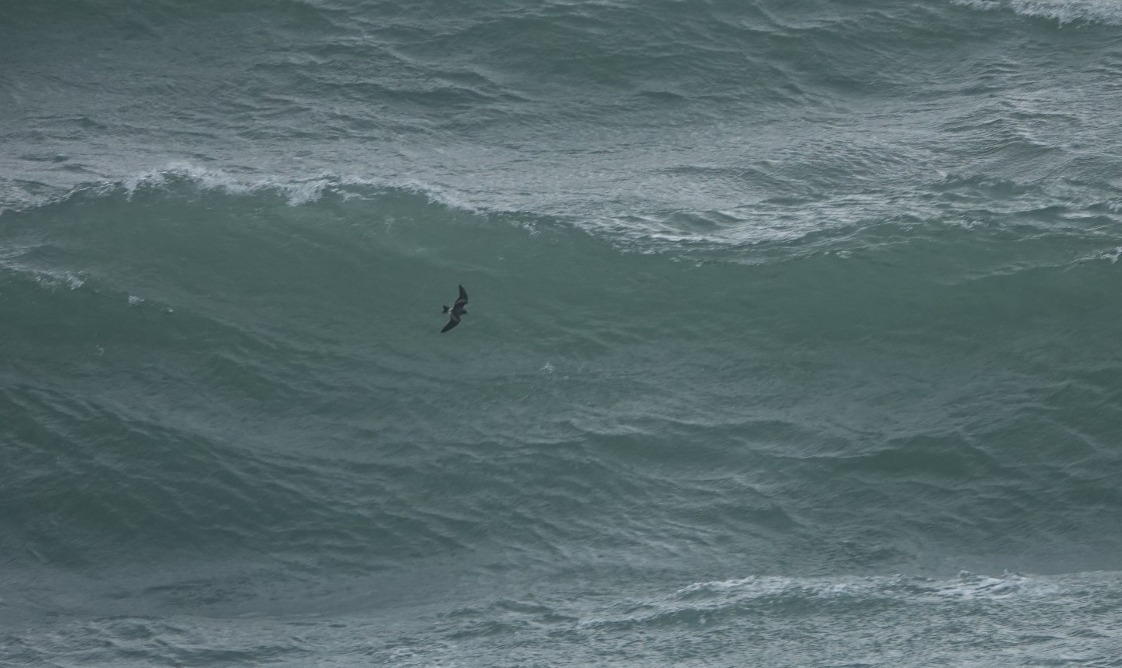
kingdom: Animalia
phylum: Chordata
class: Aves
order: Procellariiformes
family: Hydrobatidae
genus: Oceanodroma
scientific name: Oceanodroma leucorhoa
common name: Leach's storm-petrel
